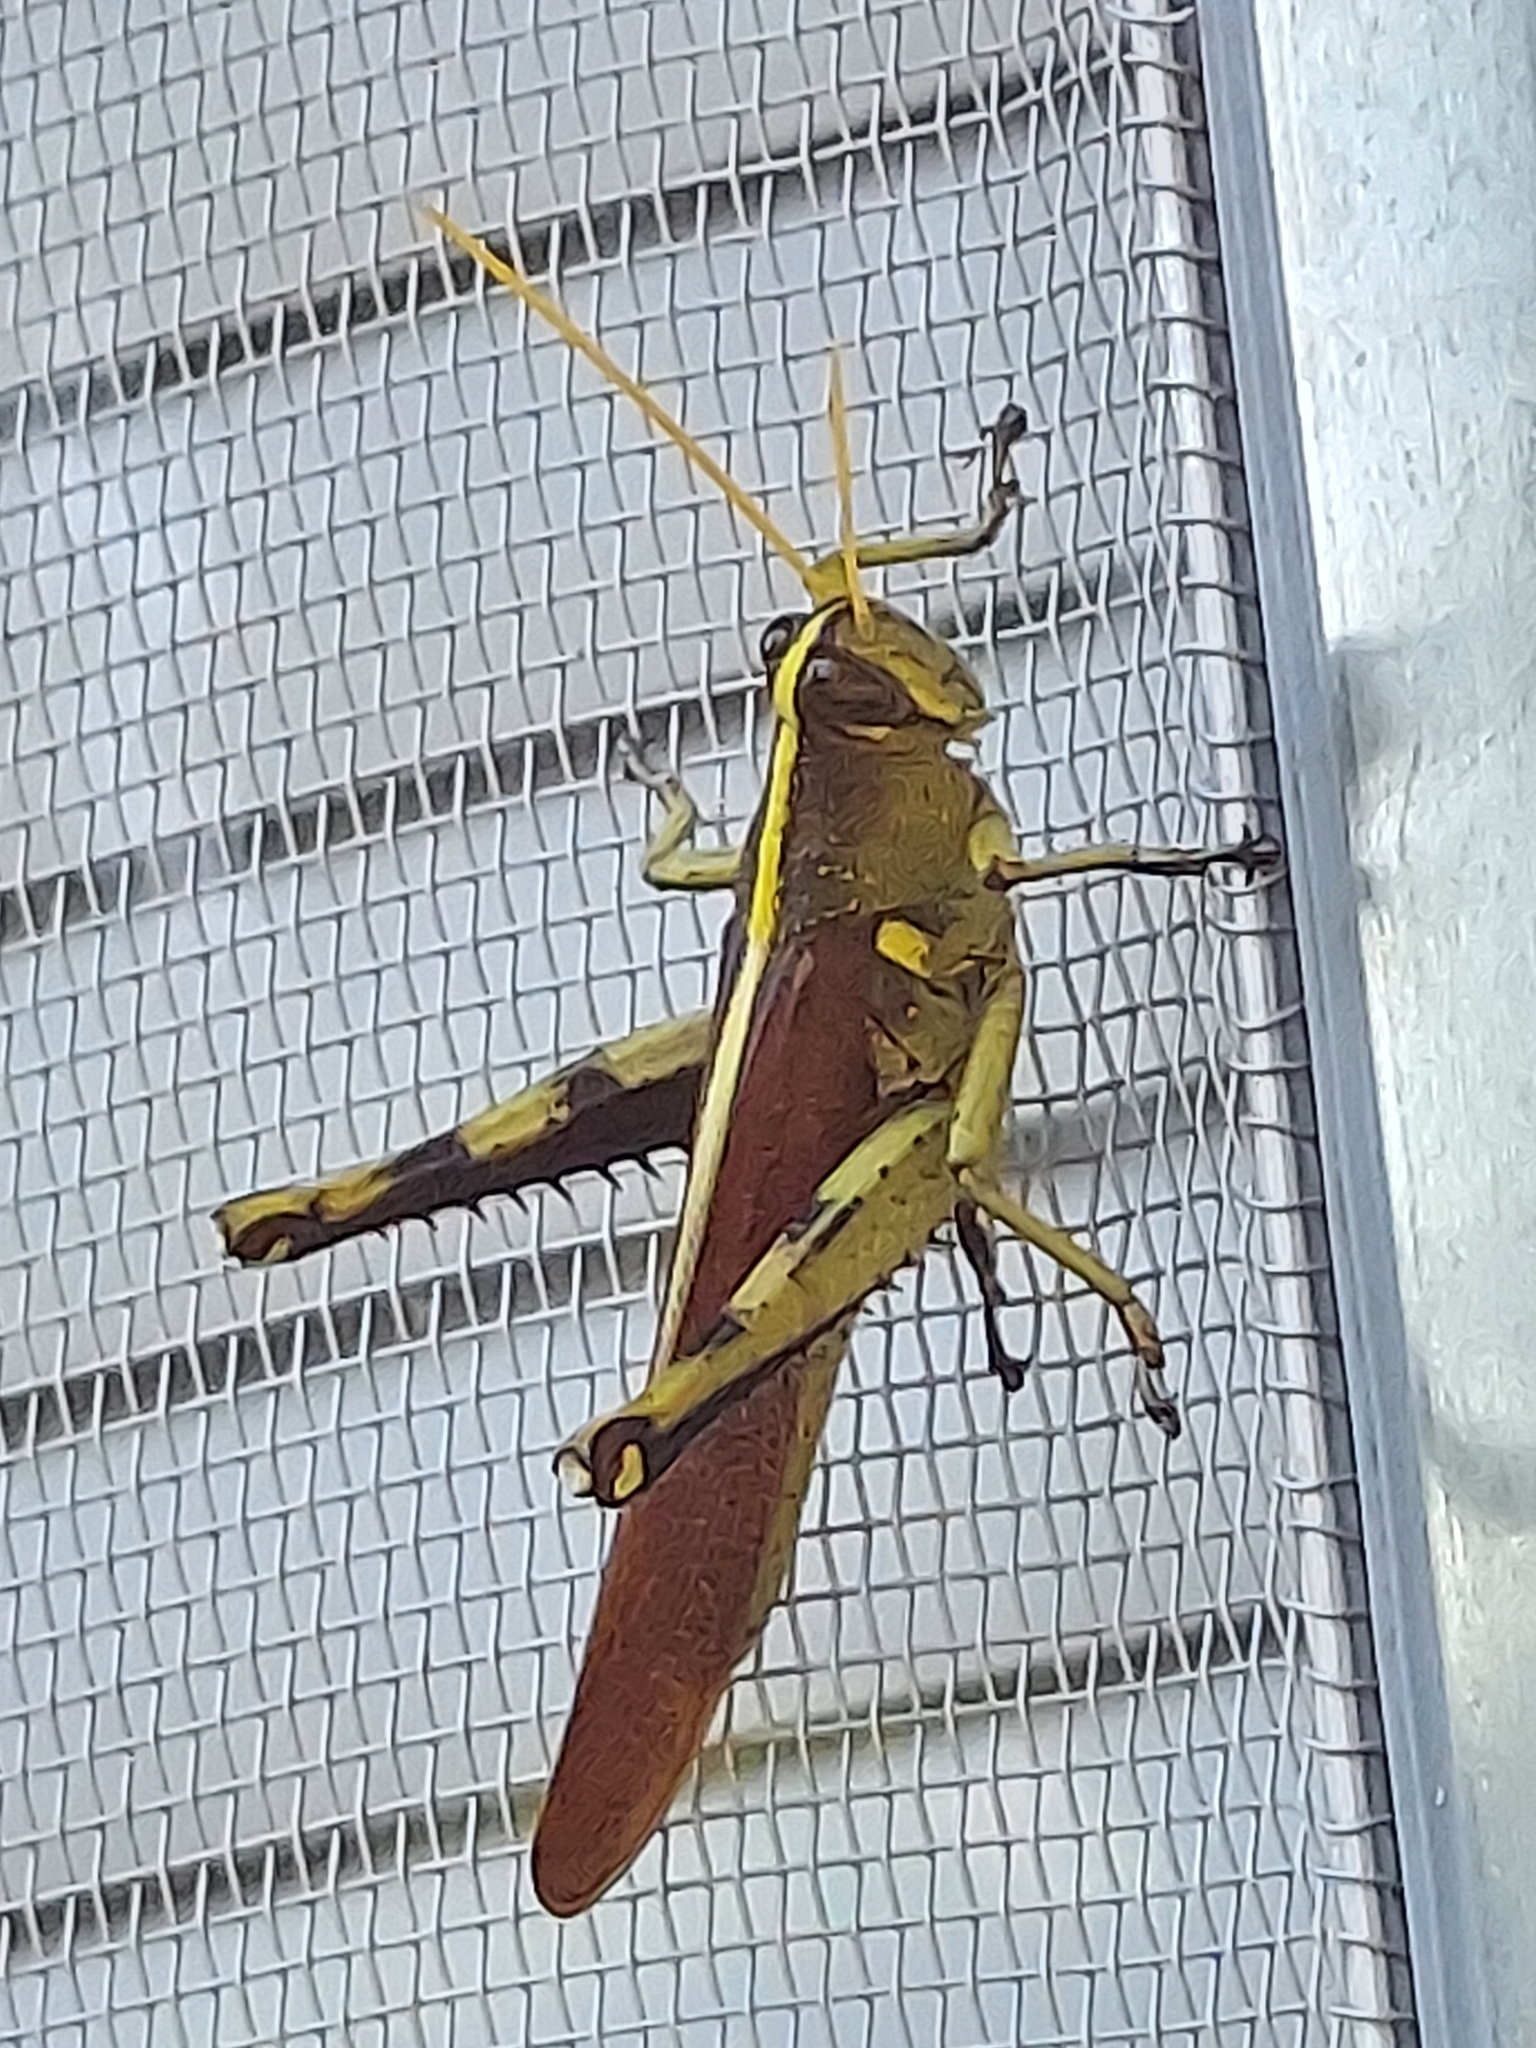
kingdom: Animalia
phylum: Arthropoda
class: Insecta
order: Orthoptera
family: Acrididae
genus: Schistocerca
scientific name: Schistocerca obscura
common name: Obscure bird grasshopper
